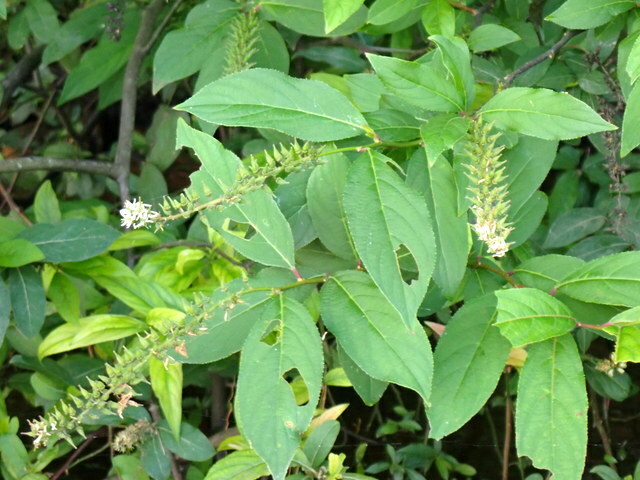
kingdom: Plantae
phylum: Tracheophyta
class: Magnoliopsida
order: Saxifragales
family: Iteaceae
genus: Itea
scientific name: Itea virginica
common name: Sweetspire
